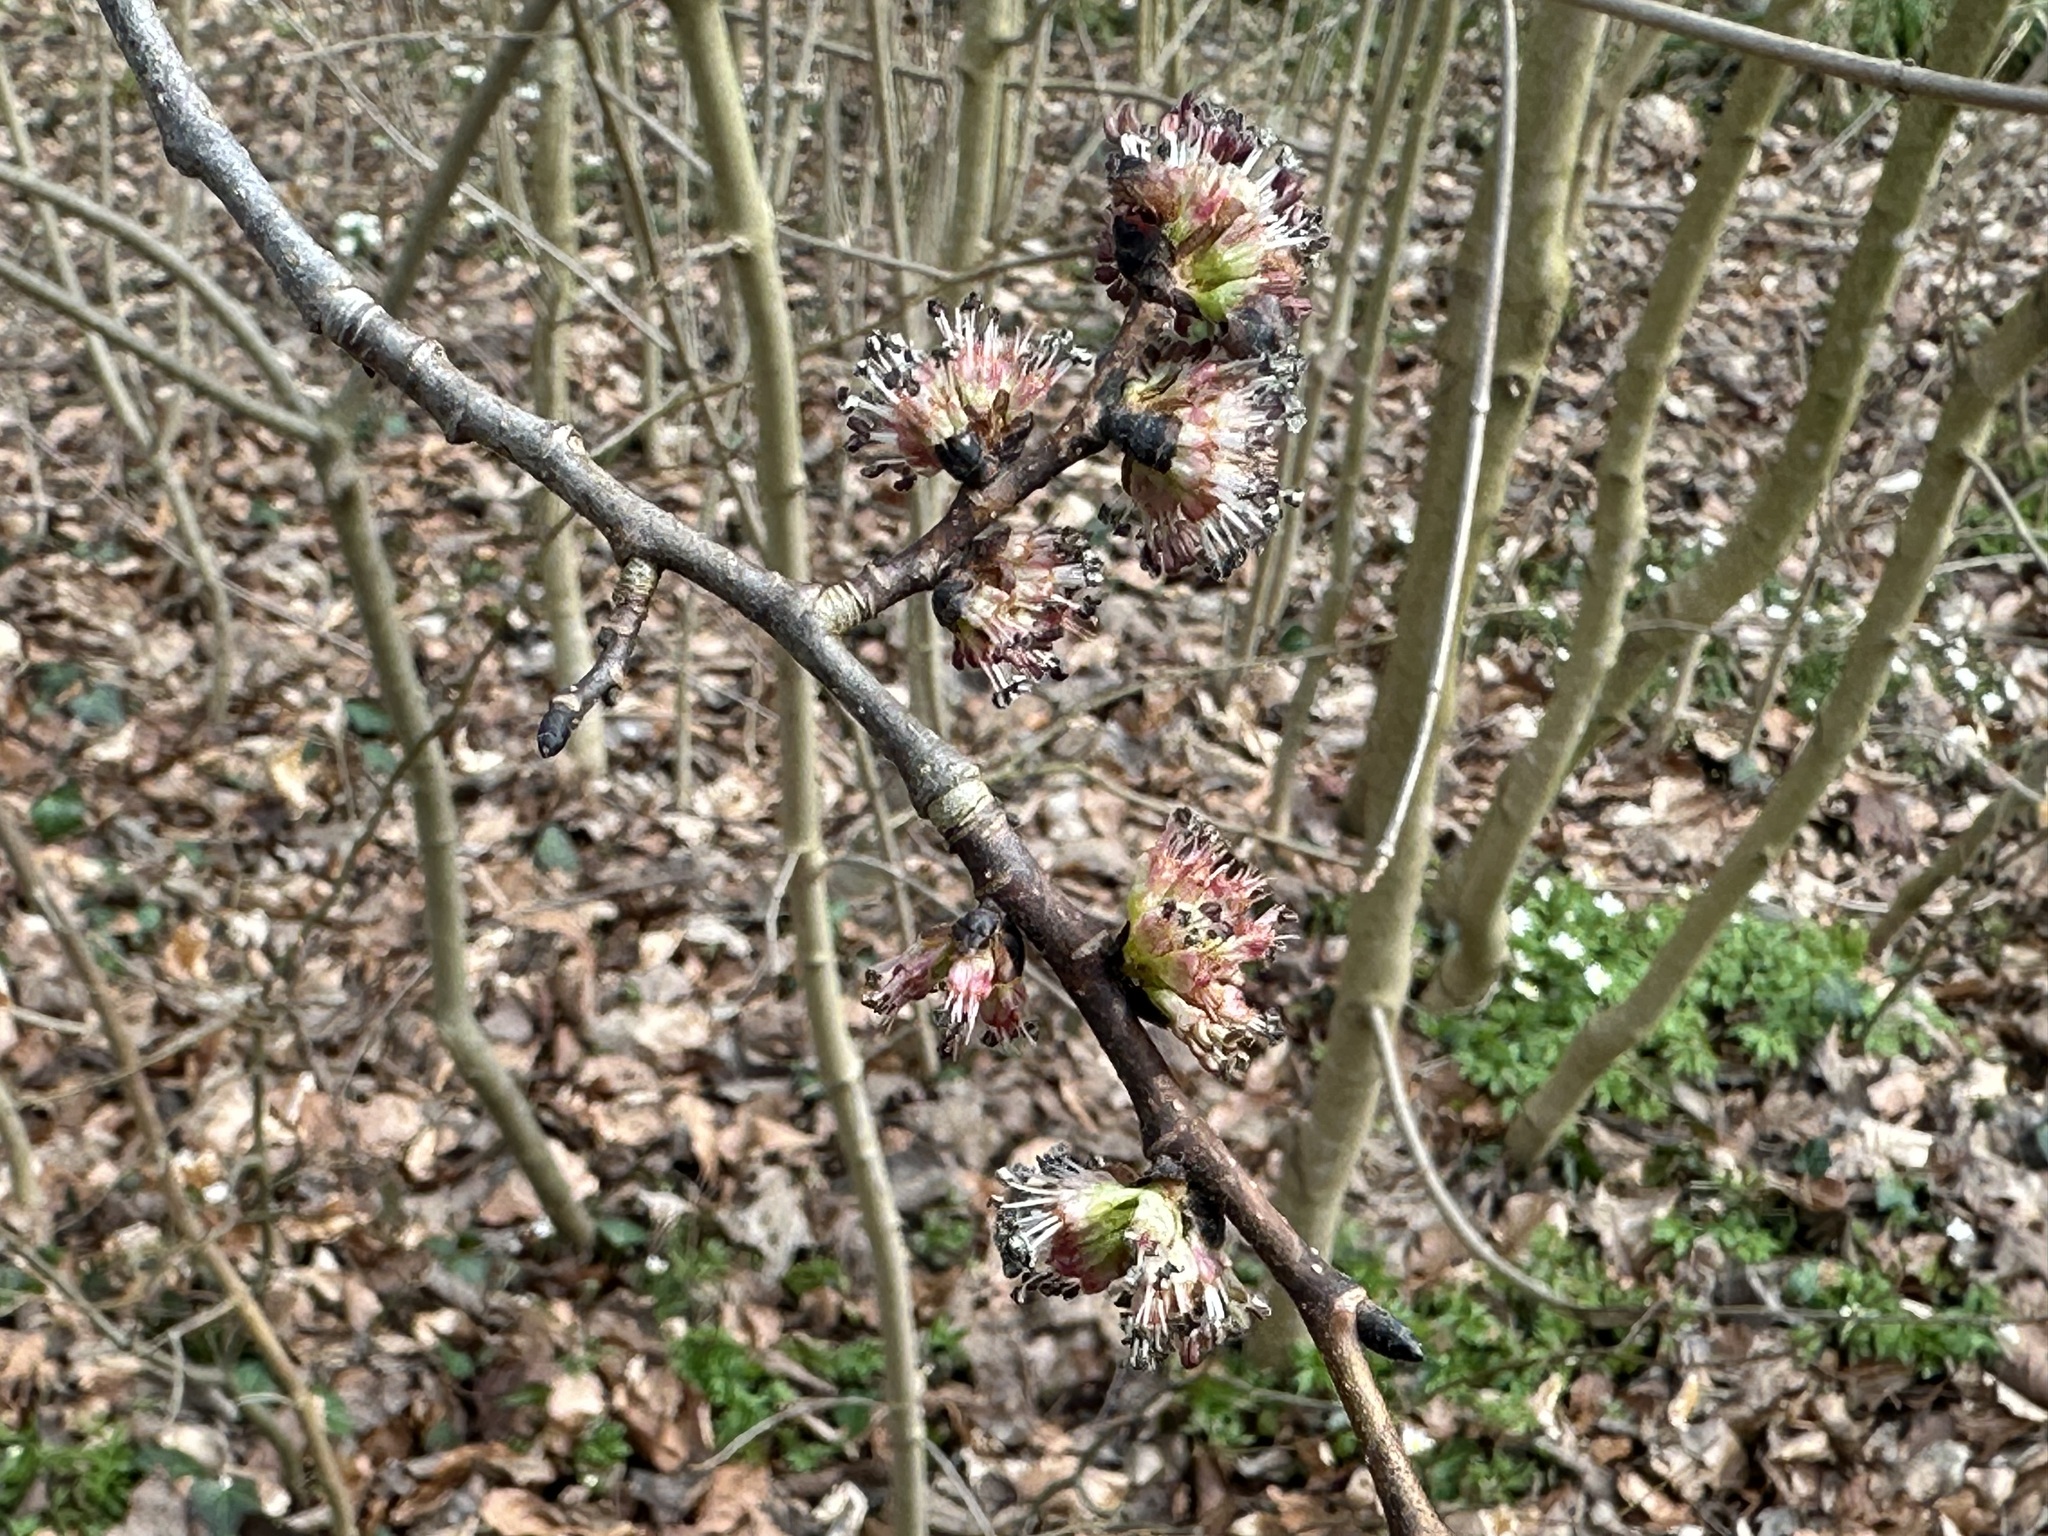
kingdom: Plantae
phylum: Tracheophyta
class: Magnoliopsida
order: Rosales
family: Ulmaceae
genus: Ulmus
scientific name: Ulmus glabra
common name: Wych elm
